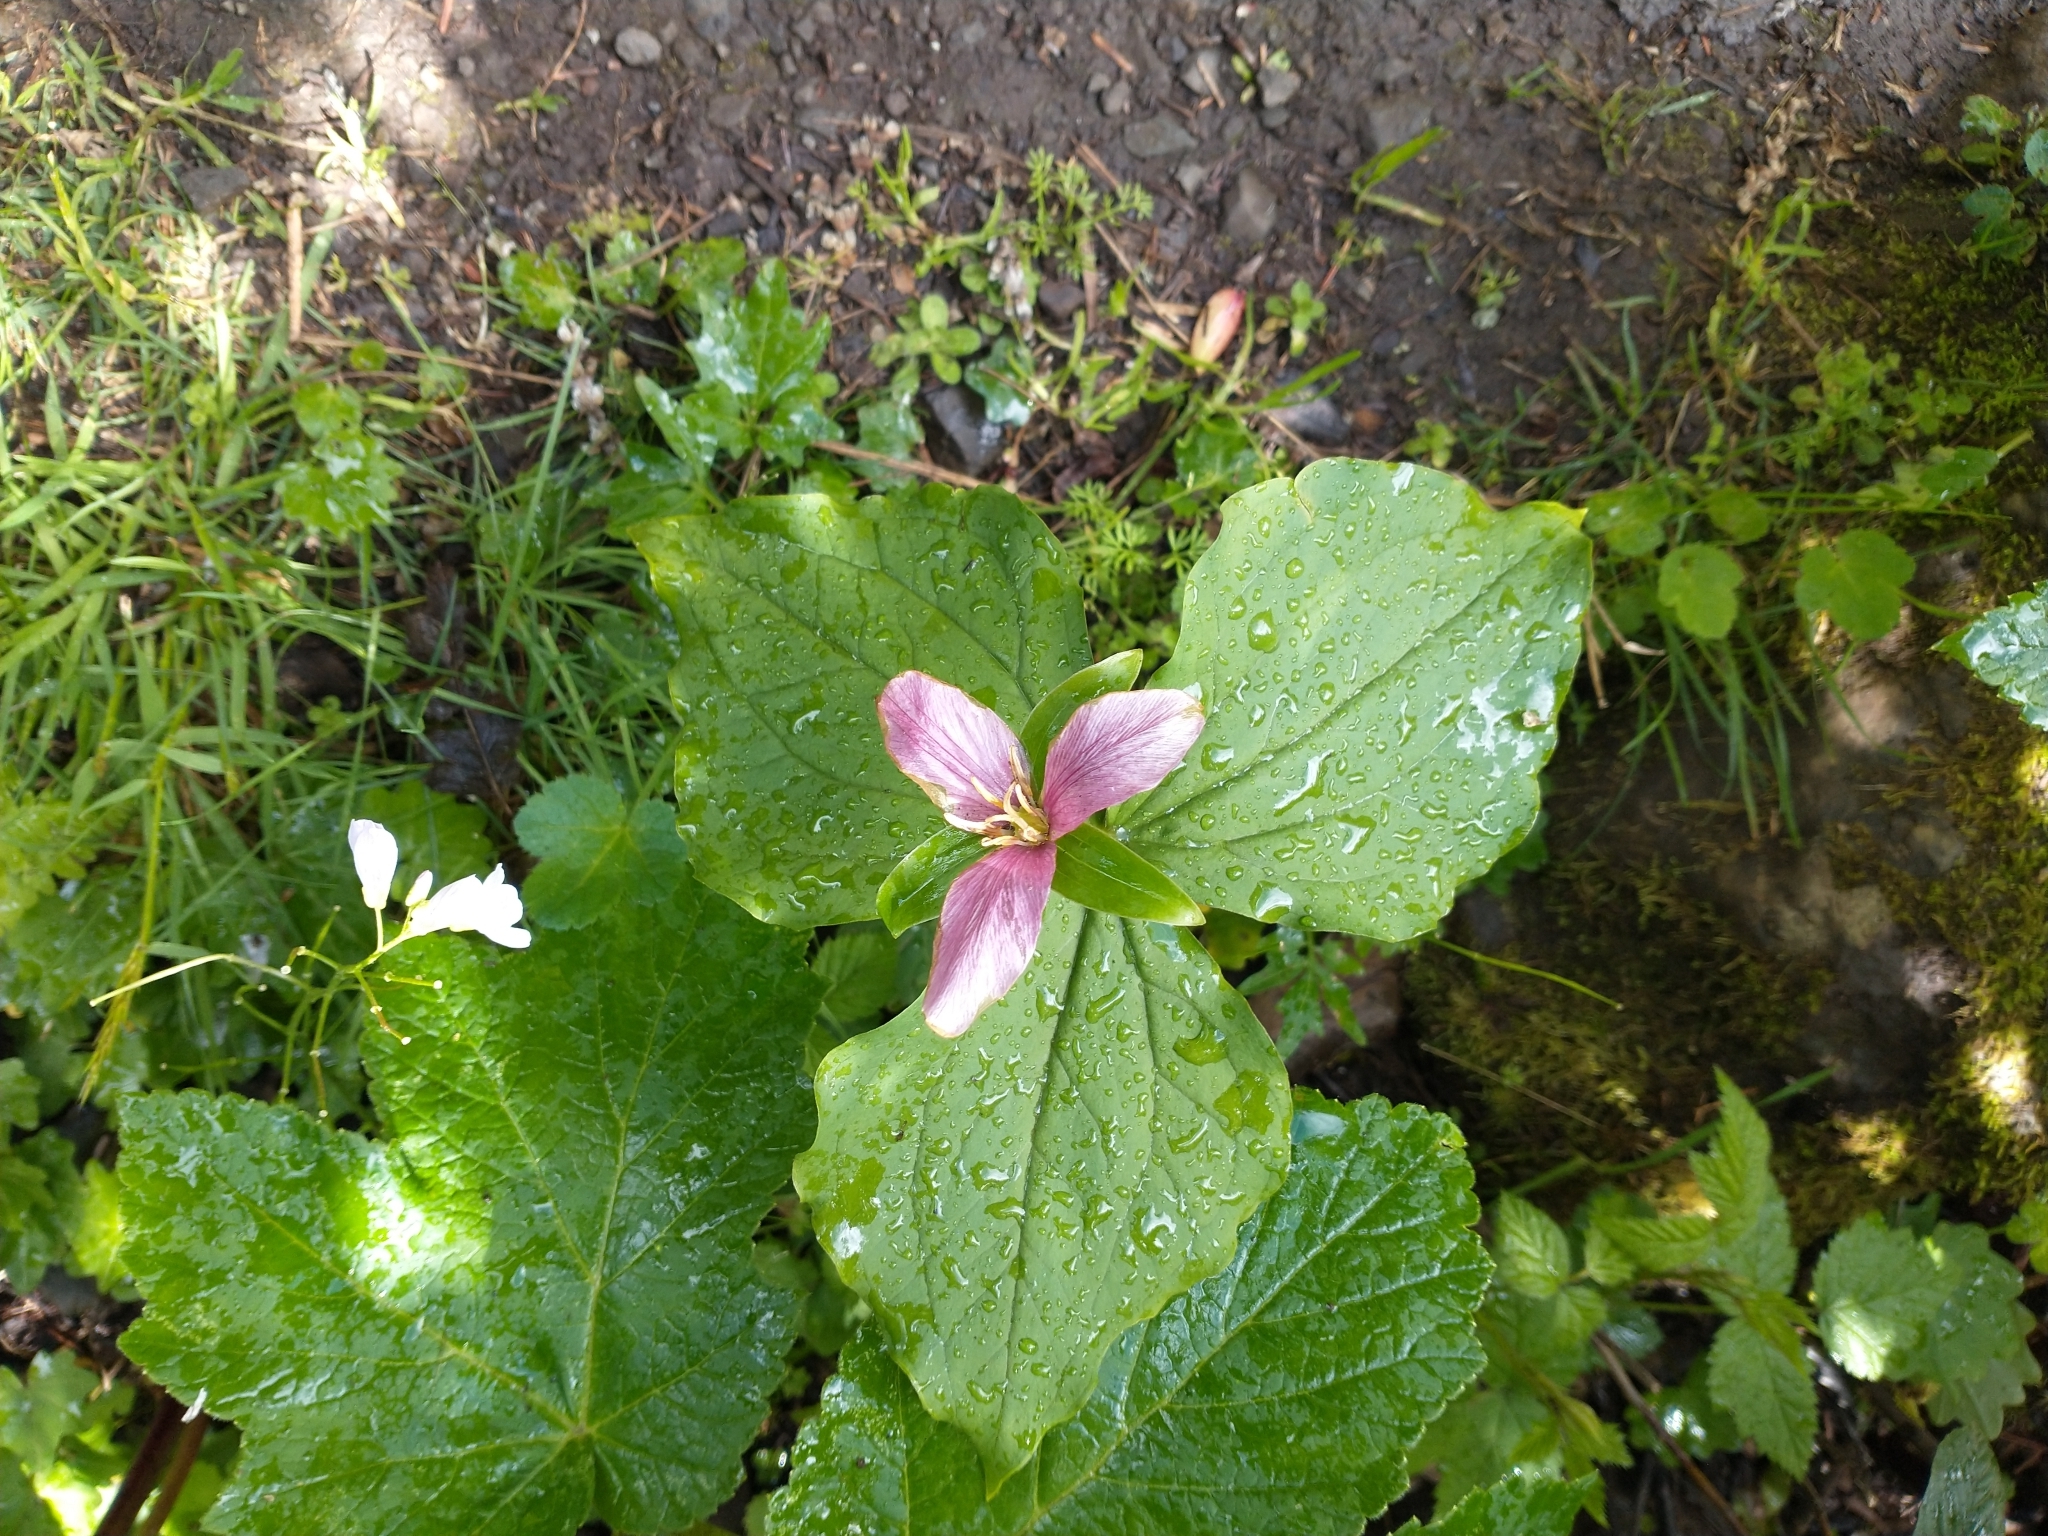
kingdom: Plantae
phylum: Tracheophyta
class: Liliopsida
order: Liliales
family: Melanthiaceae
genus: Trillium
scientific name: Trillium ovatum
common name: Pacific trillium
